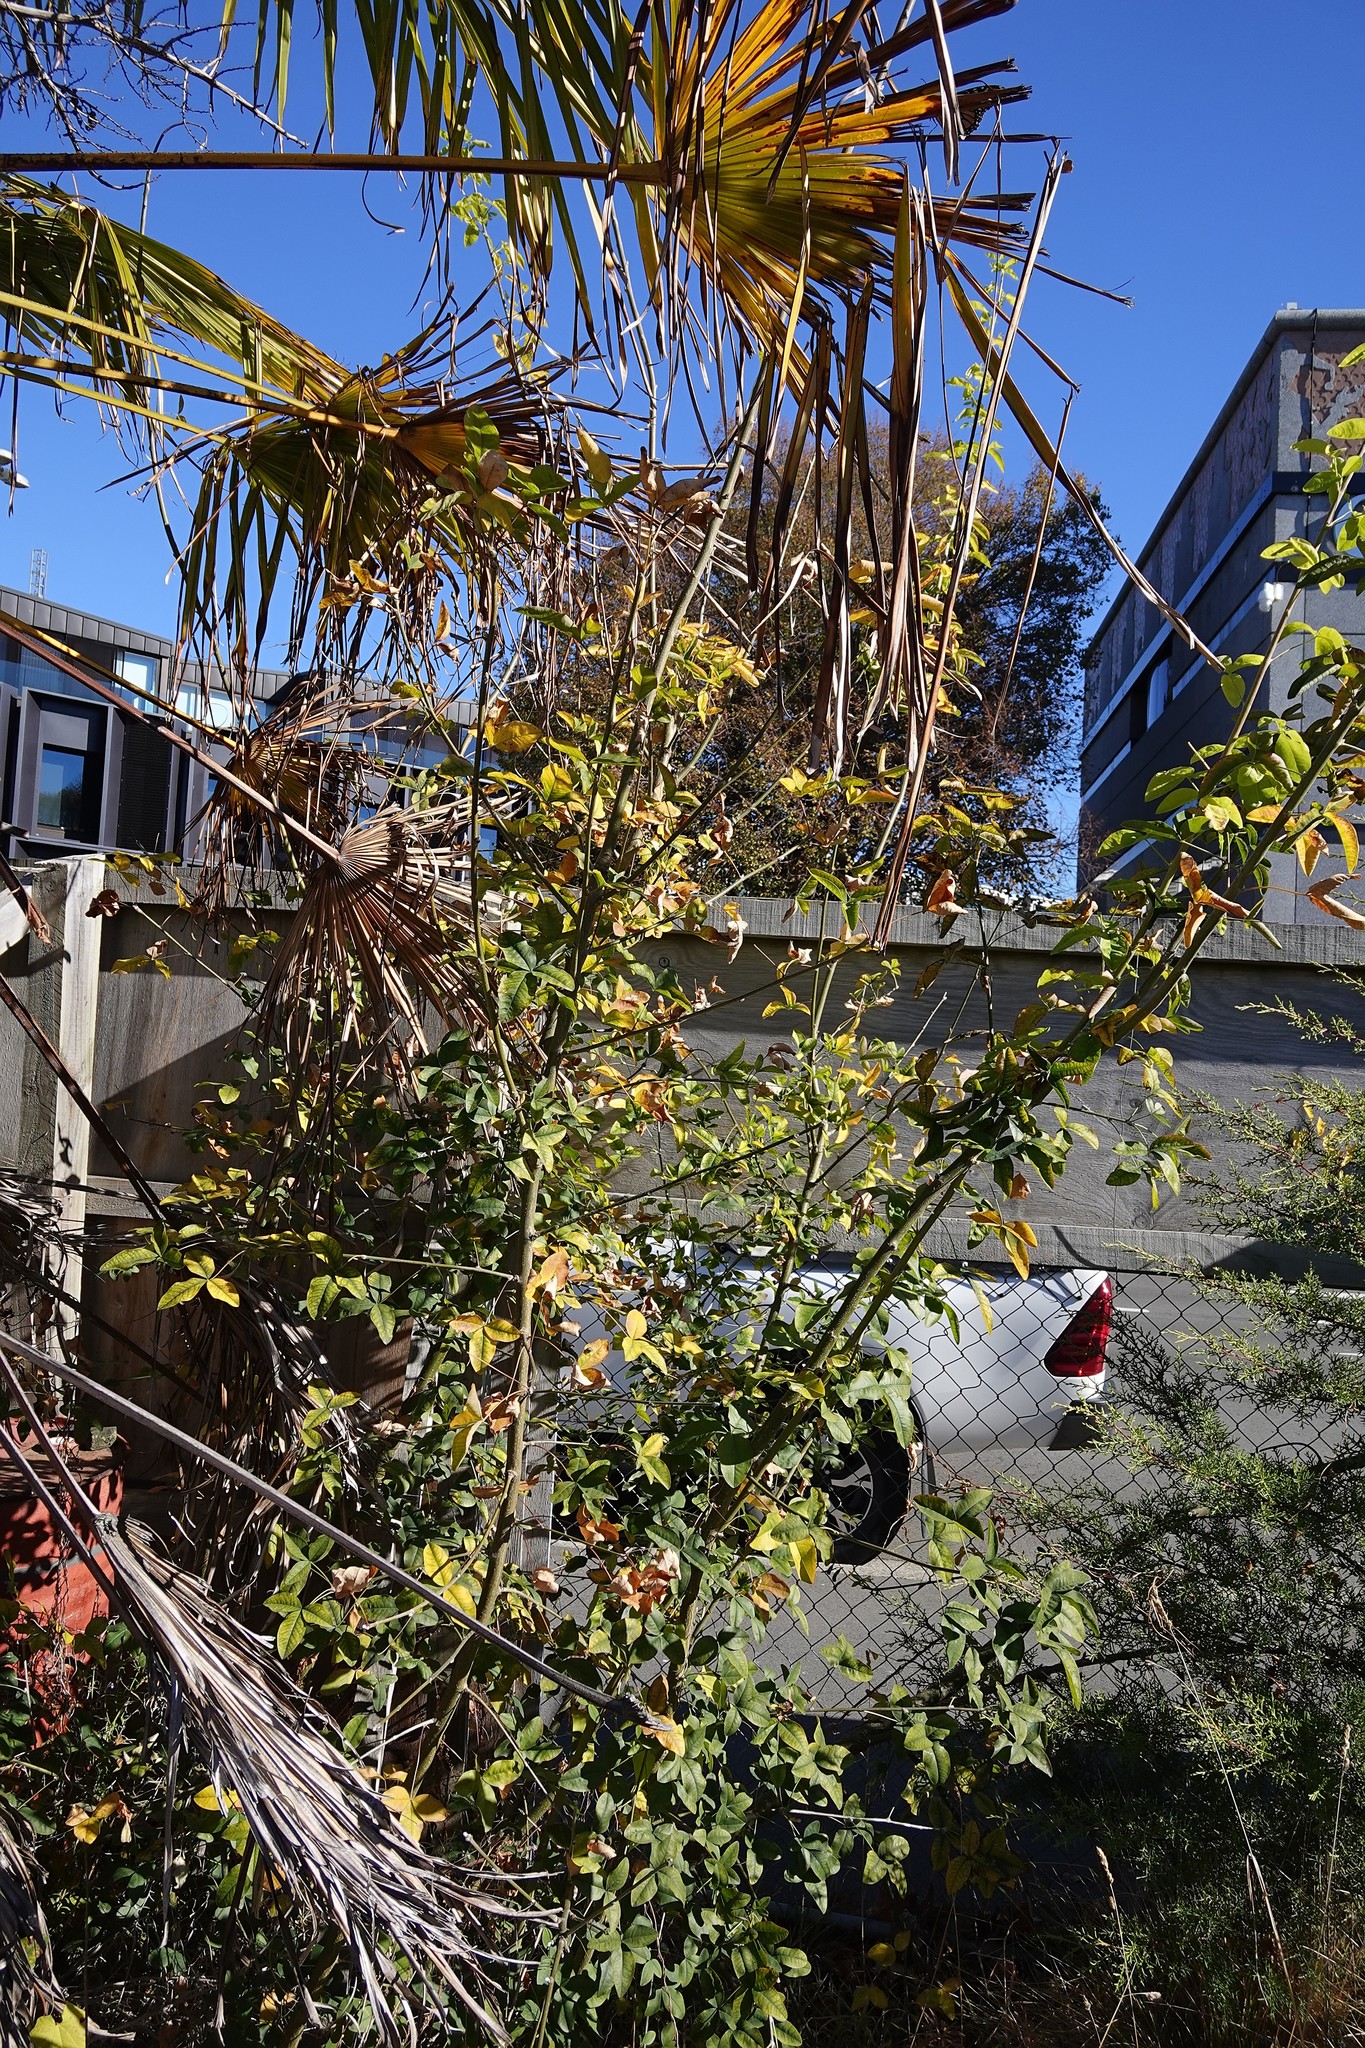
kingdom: Plantae
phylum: Tracheophyta
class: Magnoliopsida
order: Fabales
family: Fabaceae
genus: Laburnum
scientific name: Laburnum anagyroides
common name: Laburnum
